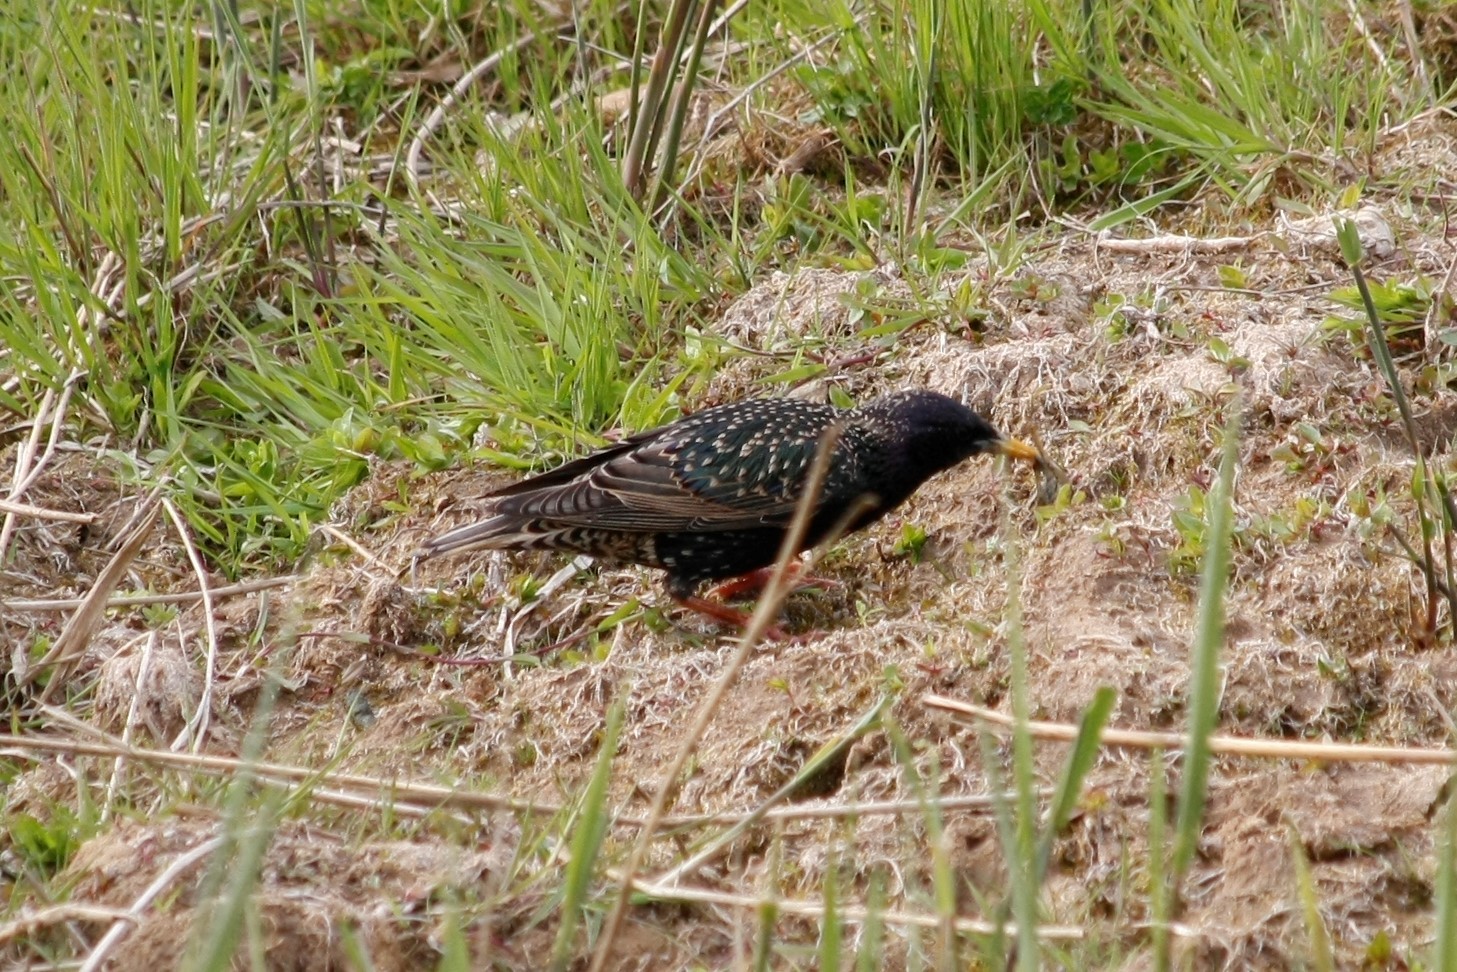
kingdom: Animalia
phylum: Chordata
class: Aves
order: Passeriformes
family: Sturnidae
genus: Sturnus
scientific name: Sturnus vulgaris
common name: Common starling
